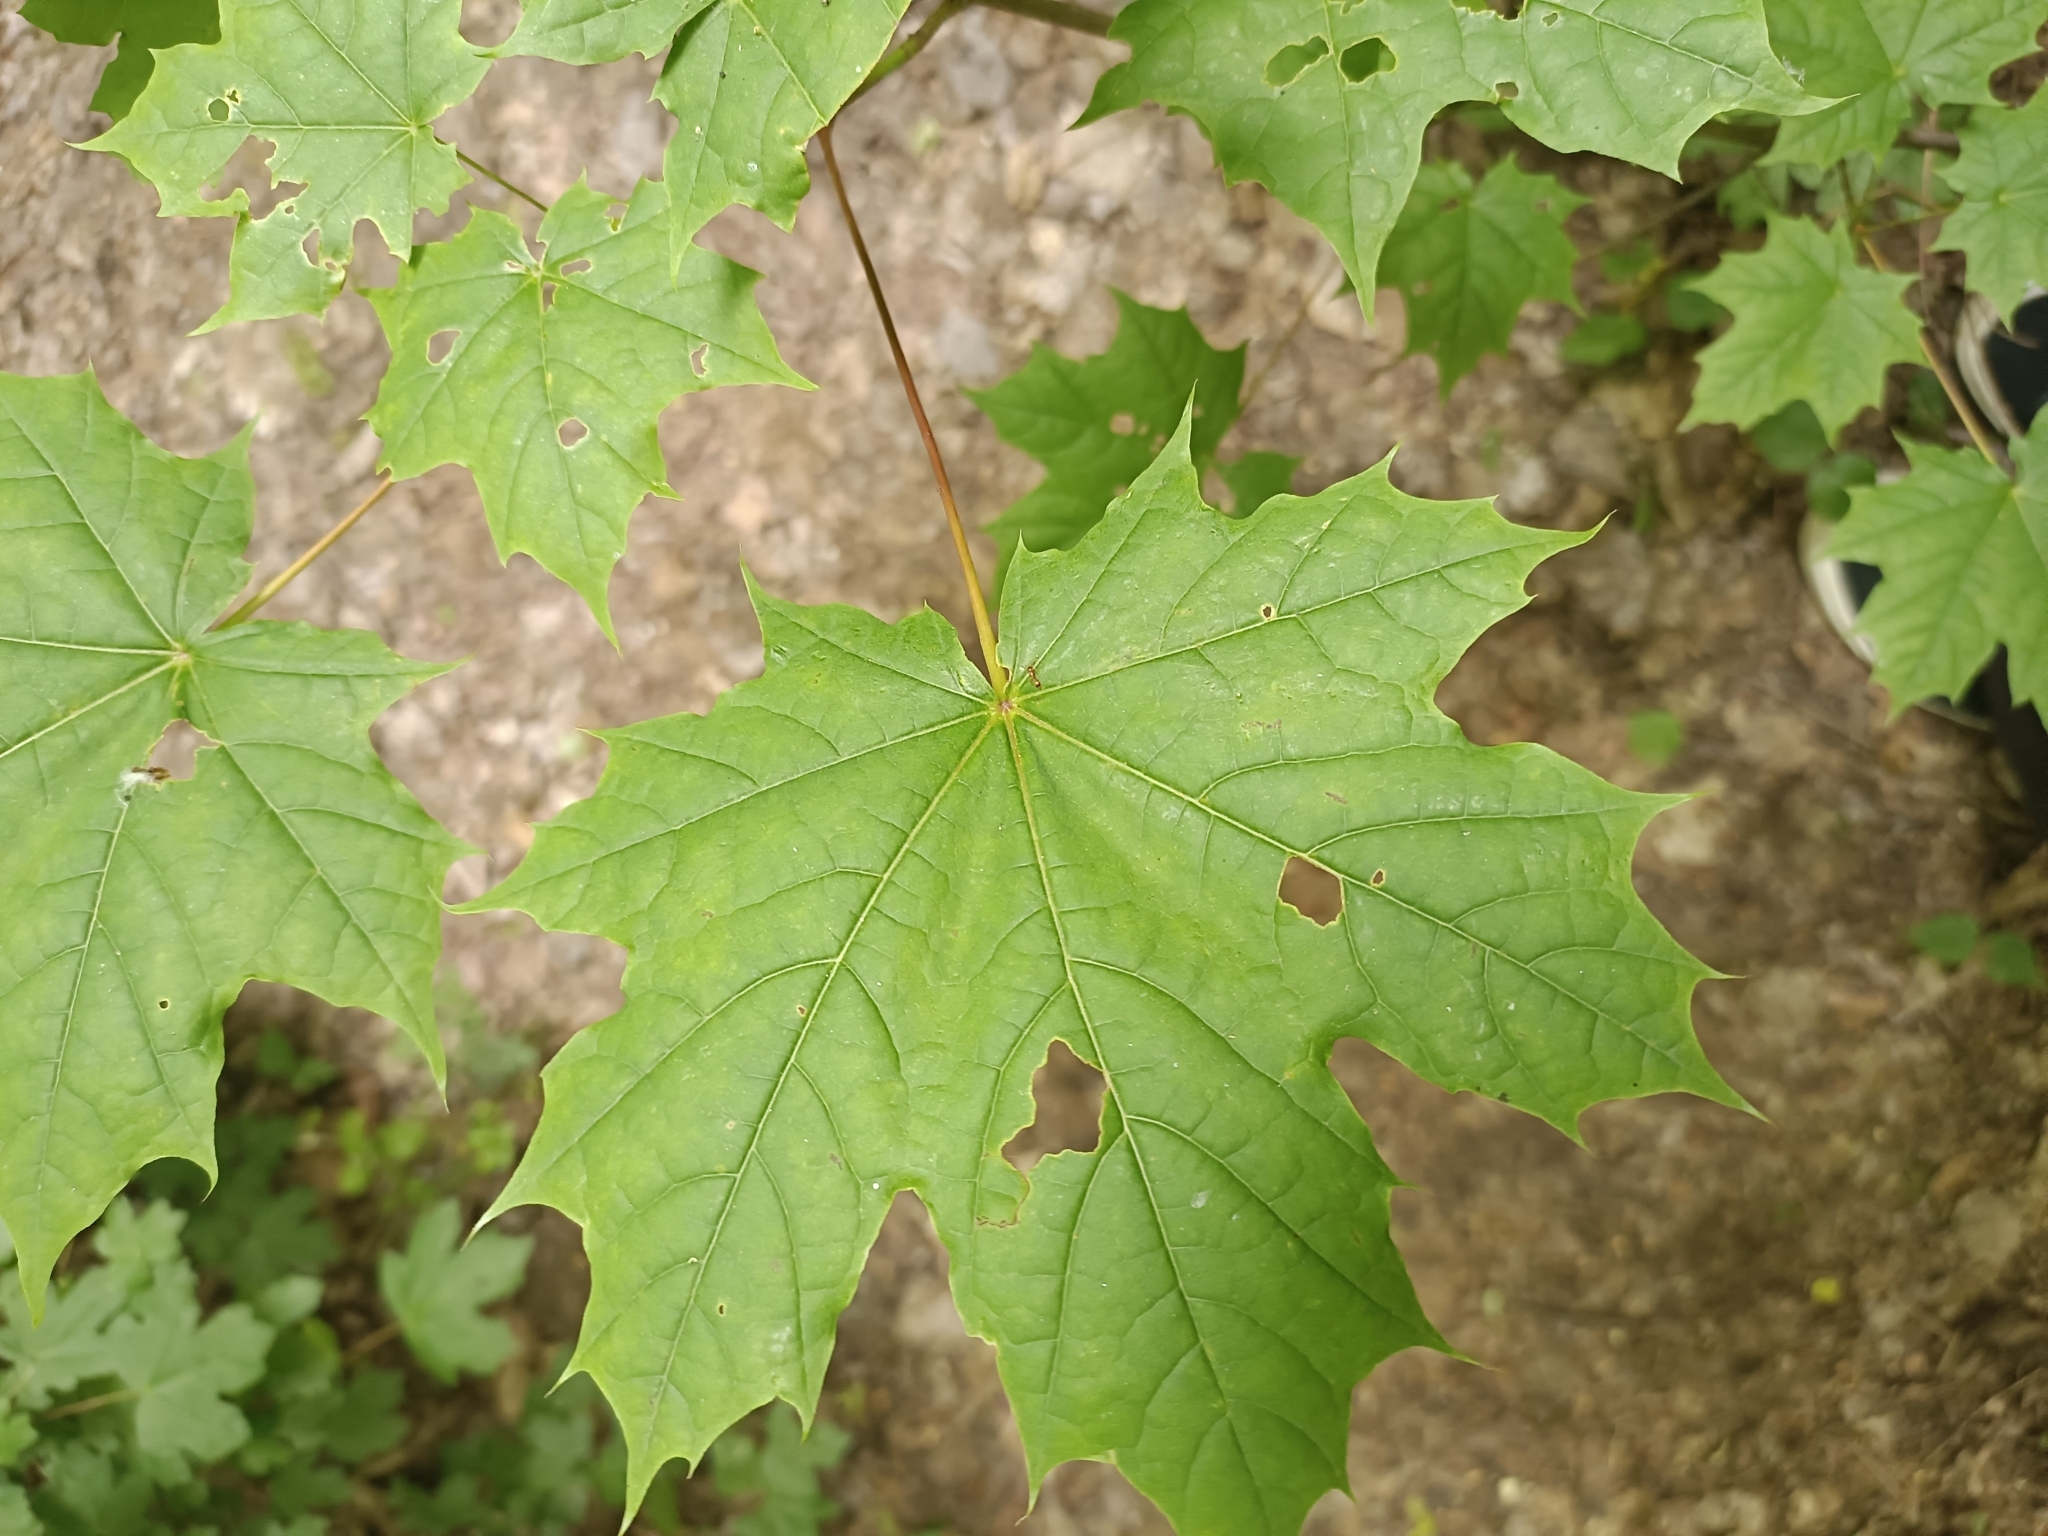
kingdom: Plantae
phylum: Tracheophyta
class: Magnoliopsida
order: Sapindales
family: Sapindaceae
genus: Acer
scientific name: Acer platanoides
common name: Norway maple
